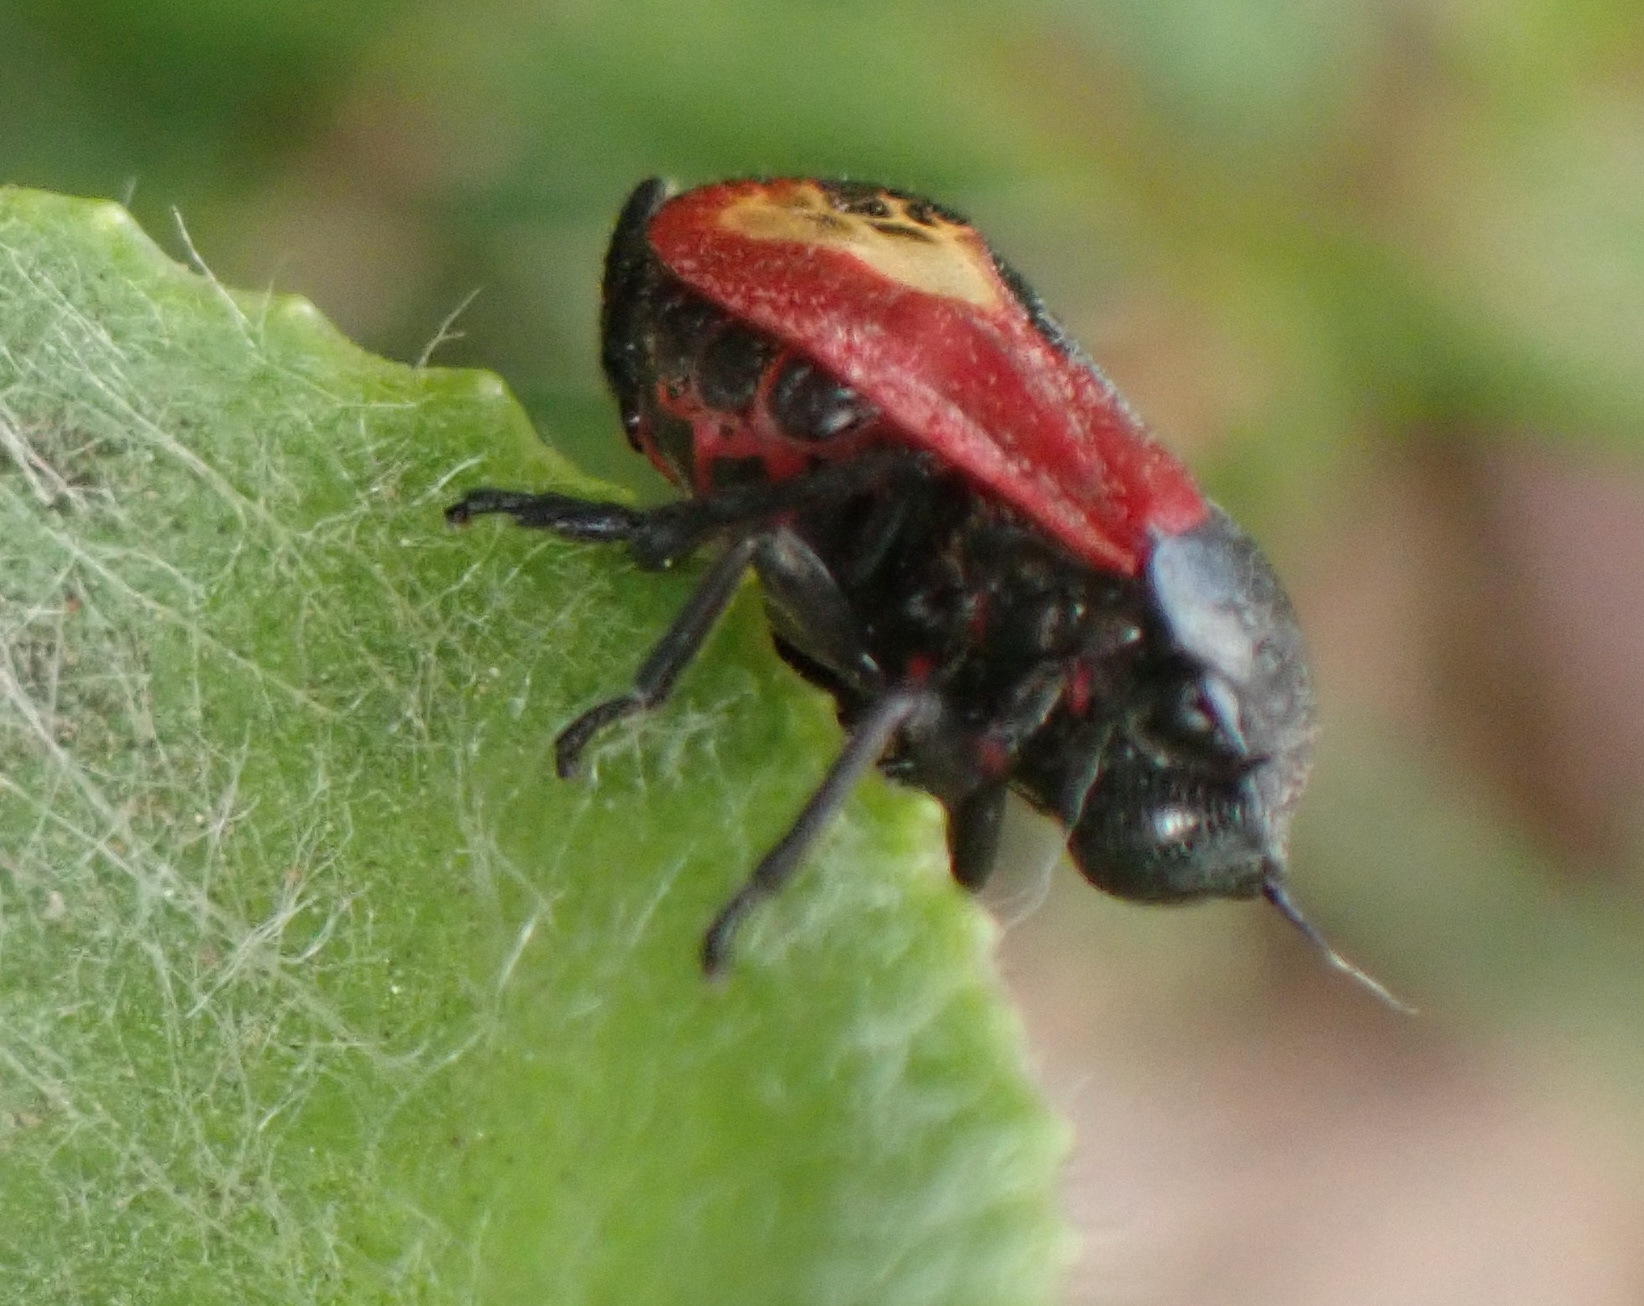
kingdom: Animalia
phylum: Arthropoda
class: Insecta
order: Hemiptera
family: Cercopidae
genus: Rhinaulax
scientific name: Rhinaulax analis
